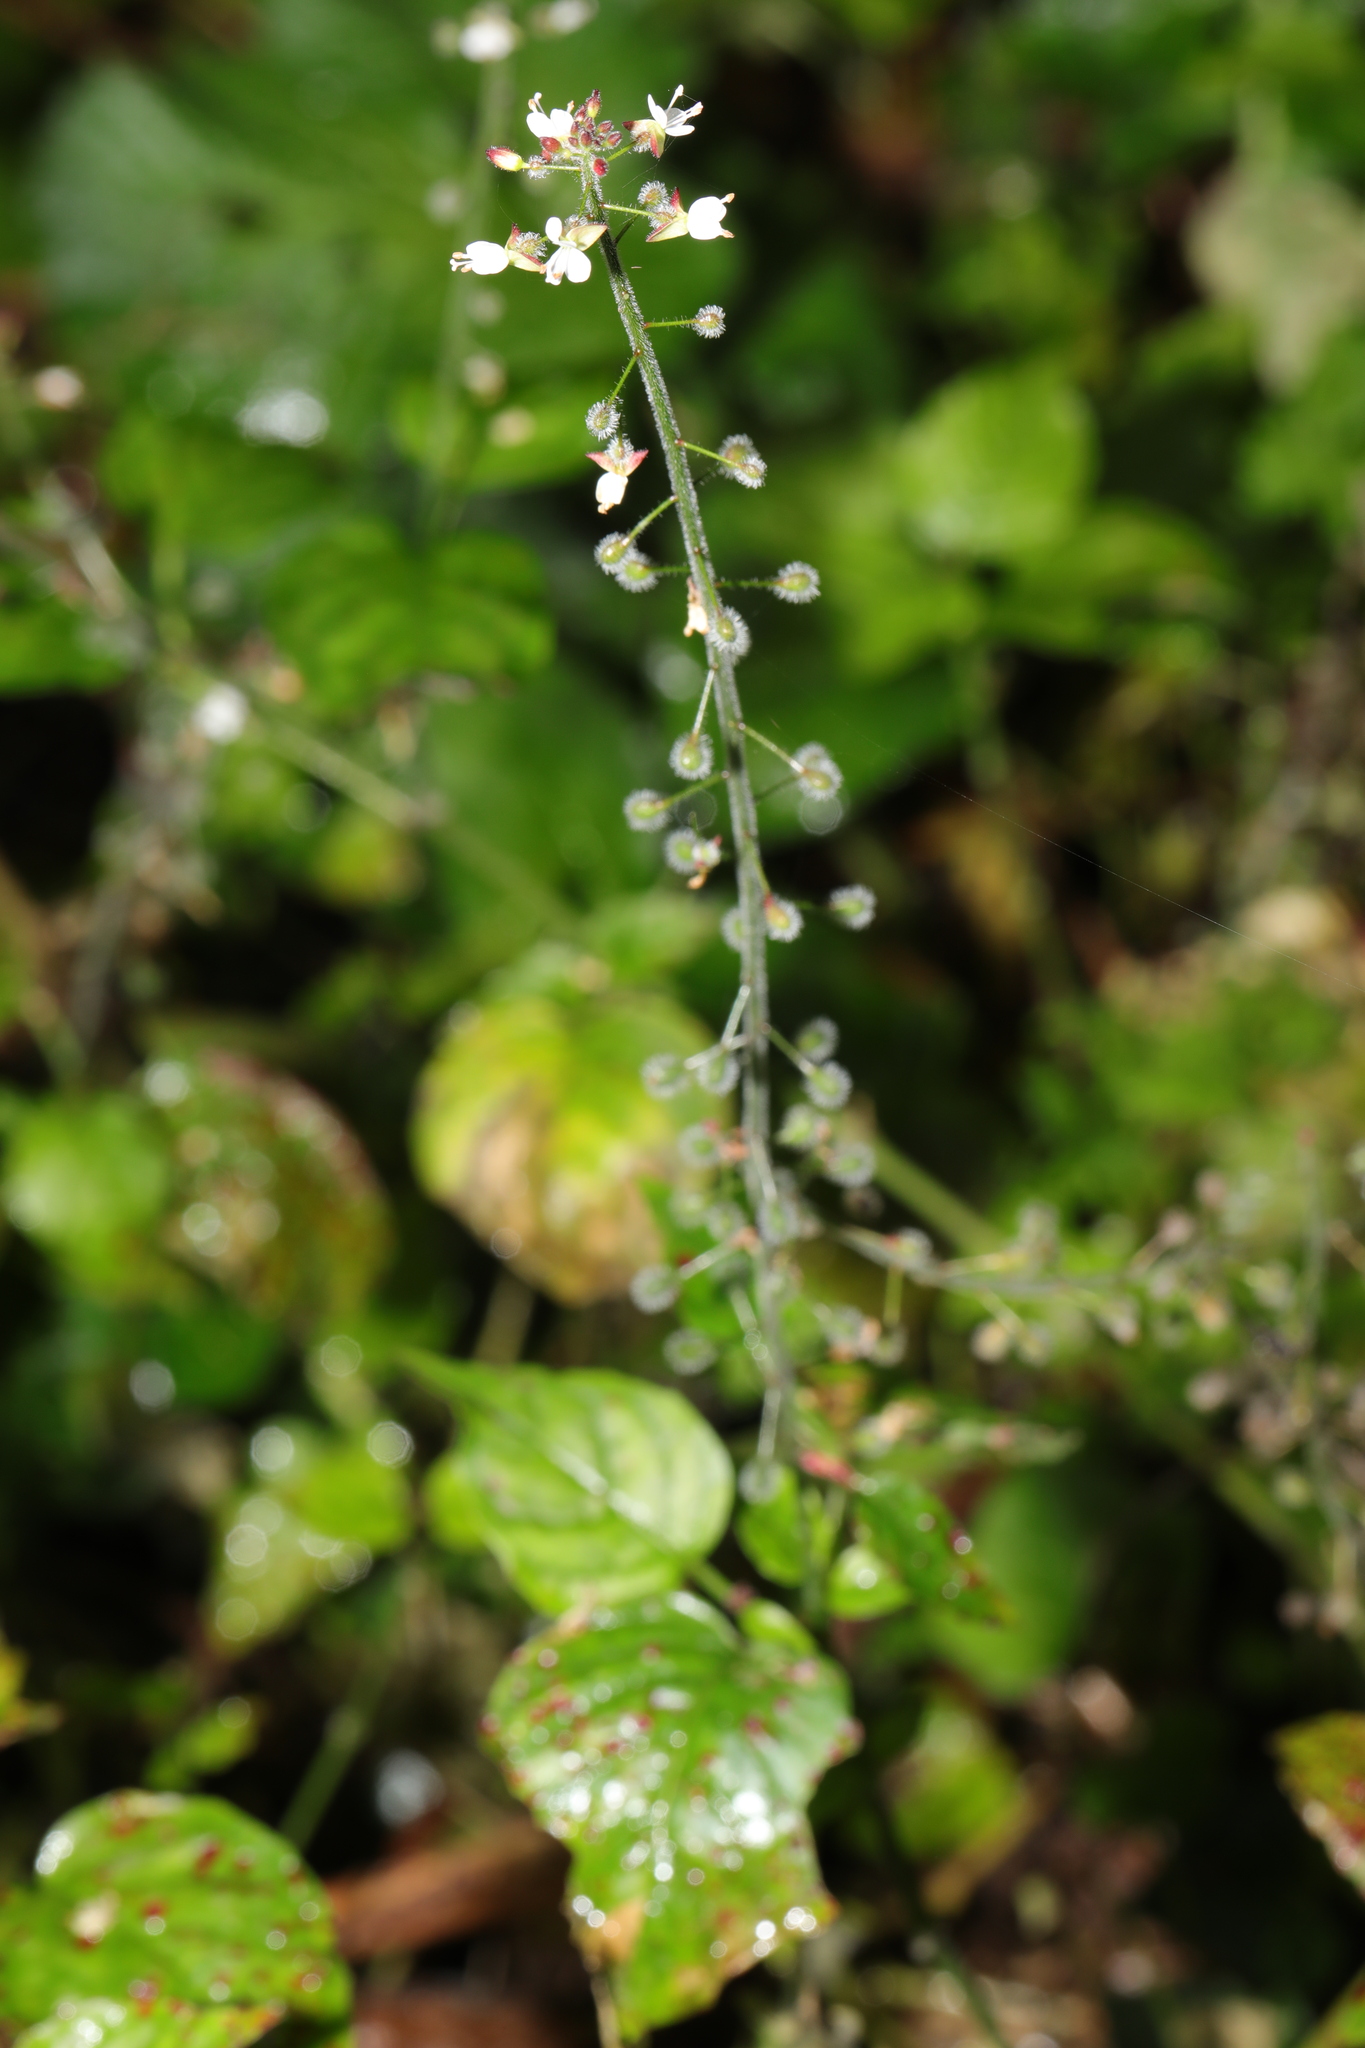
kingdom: Plantae
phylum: Tracheophyta
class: Magnoliopsida
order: Myrtales
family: Onagraceae
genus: Circaea
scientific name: Circaea lutetiana
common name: Enchanter's-nightshade
